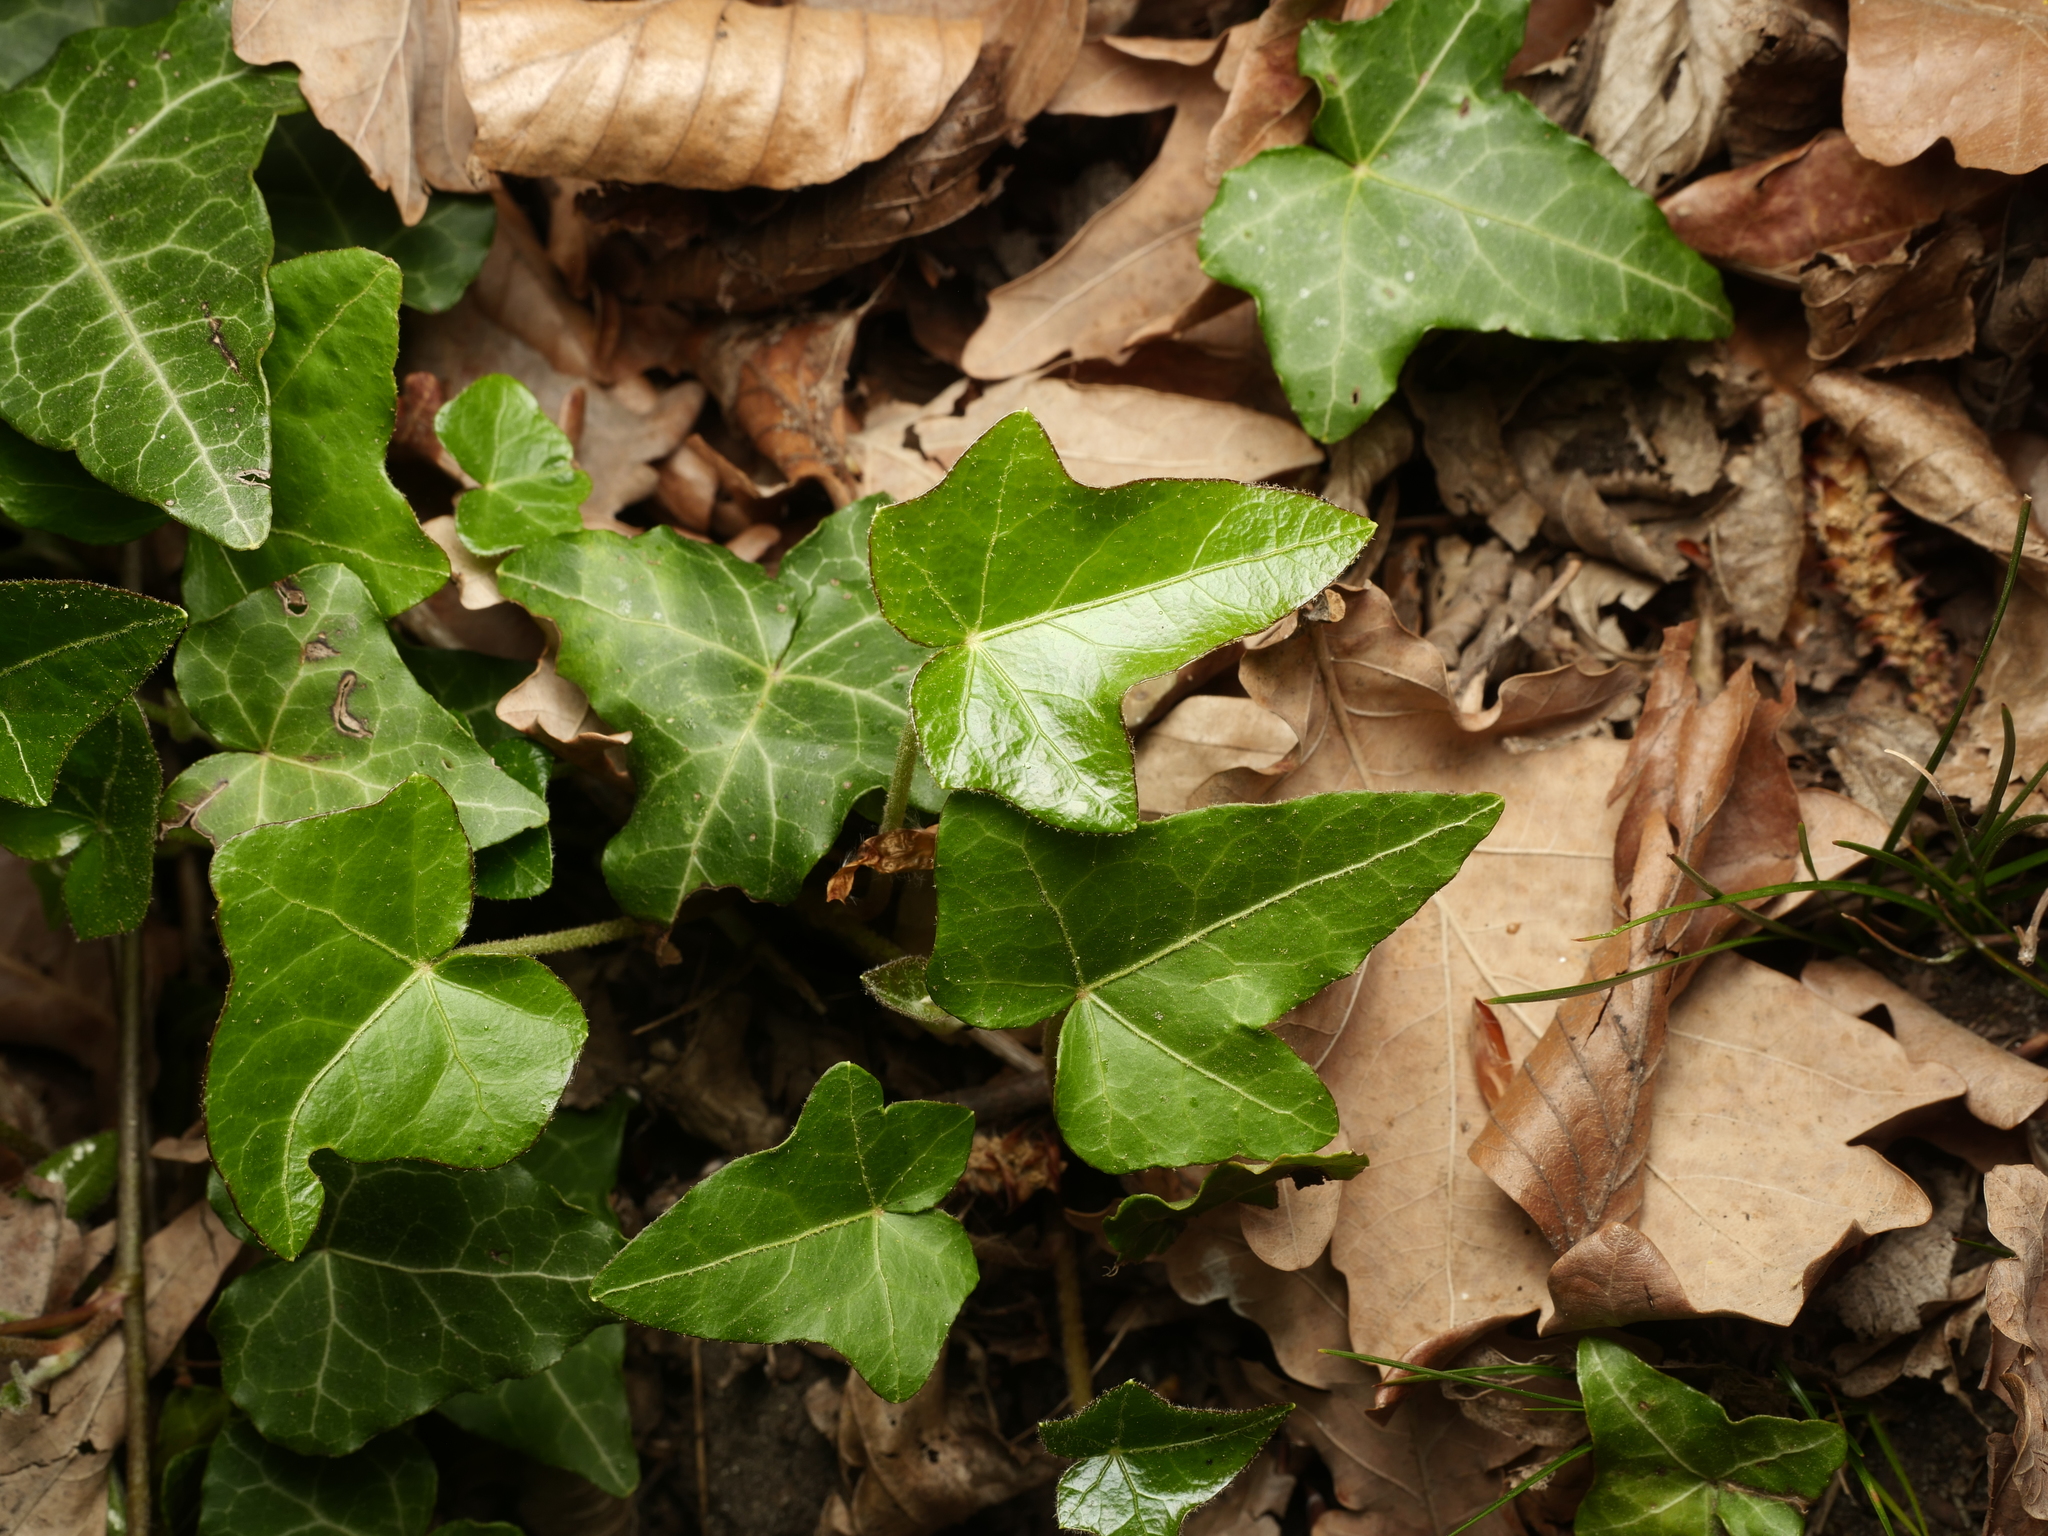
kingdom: Plantae
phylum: Tracheophyta
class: Magnoliopsida
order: Apiales
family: Araliaceae
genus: Hedera
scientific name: Hedera helix
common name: Ivy
